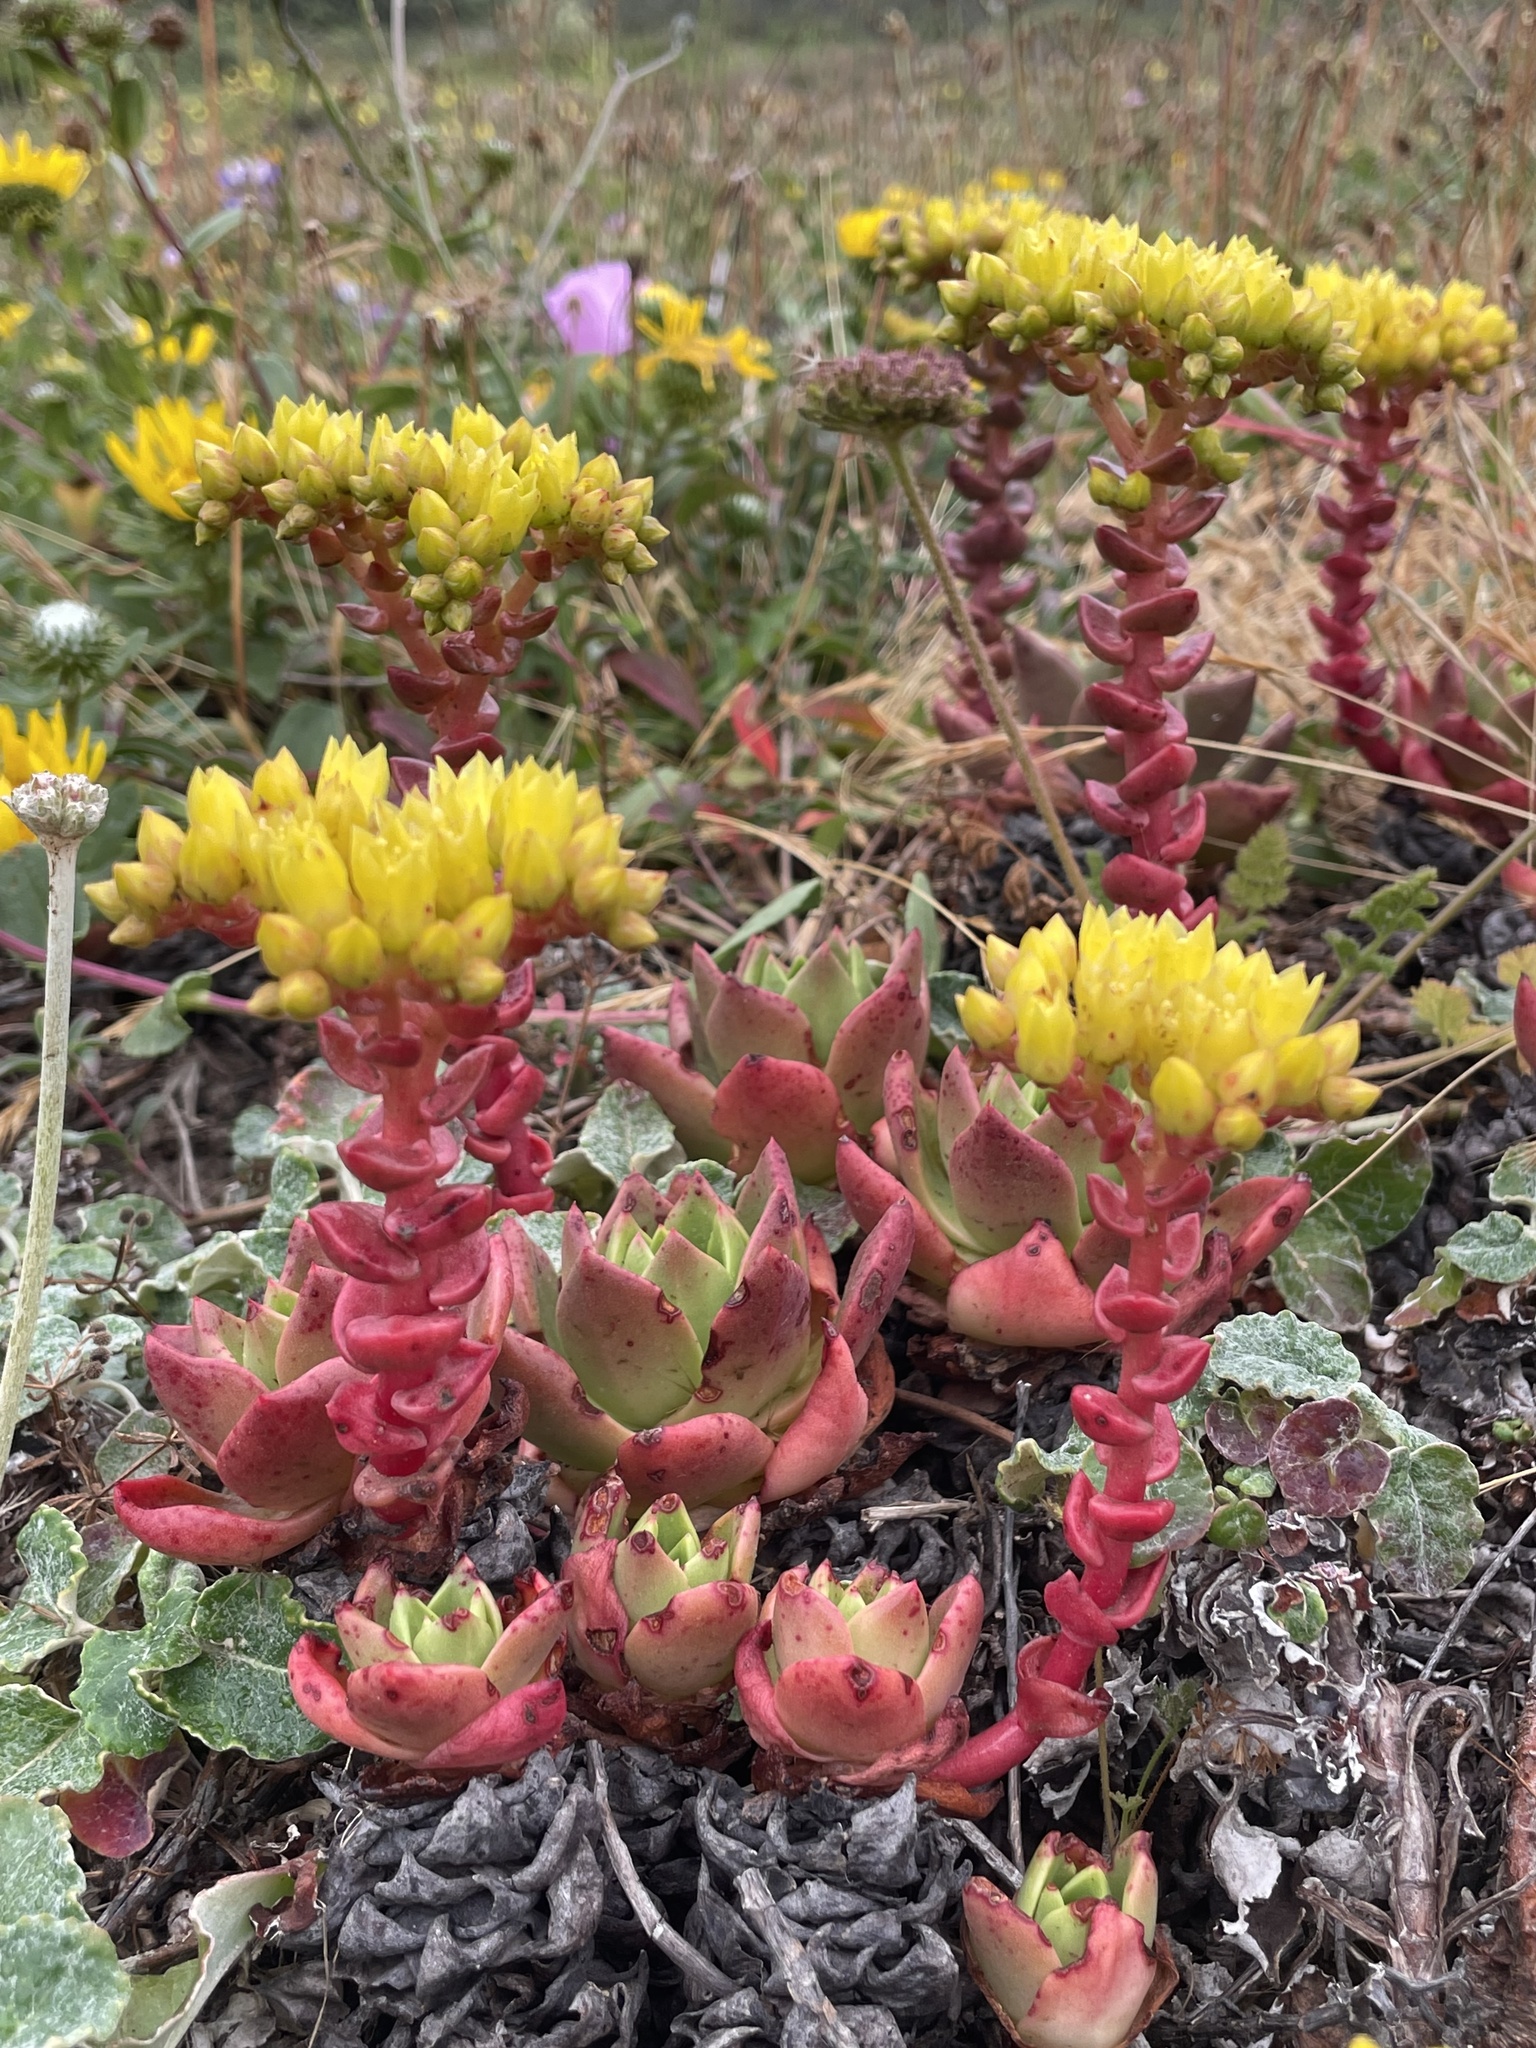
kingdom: Plantae
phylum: Tracheophyta
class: Magnoliopsida
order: Saxifragales
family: Crassulaceae
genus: Dudleya
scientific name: Dudleya caespitosa
